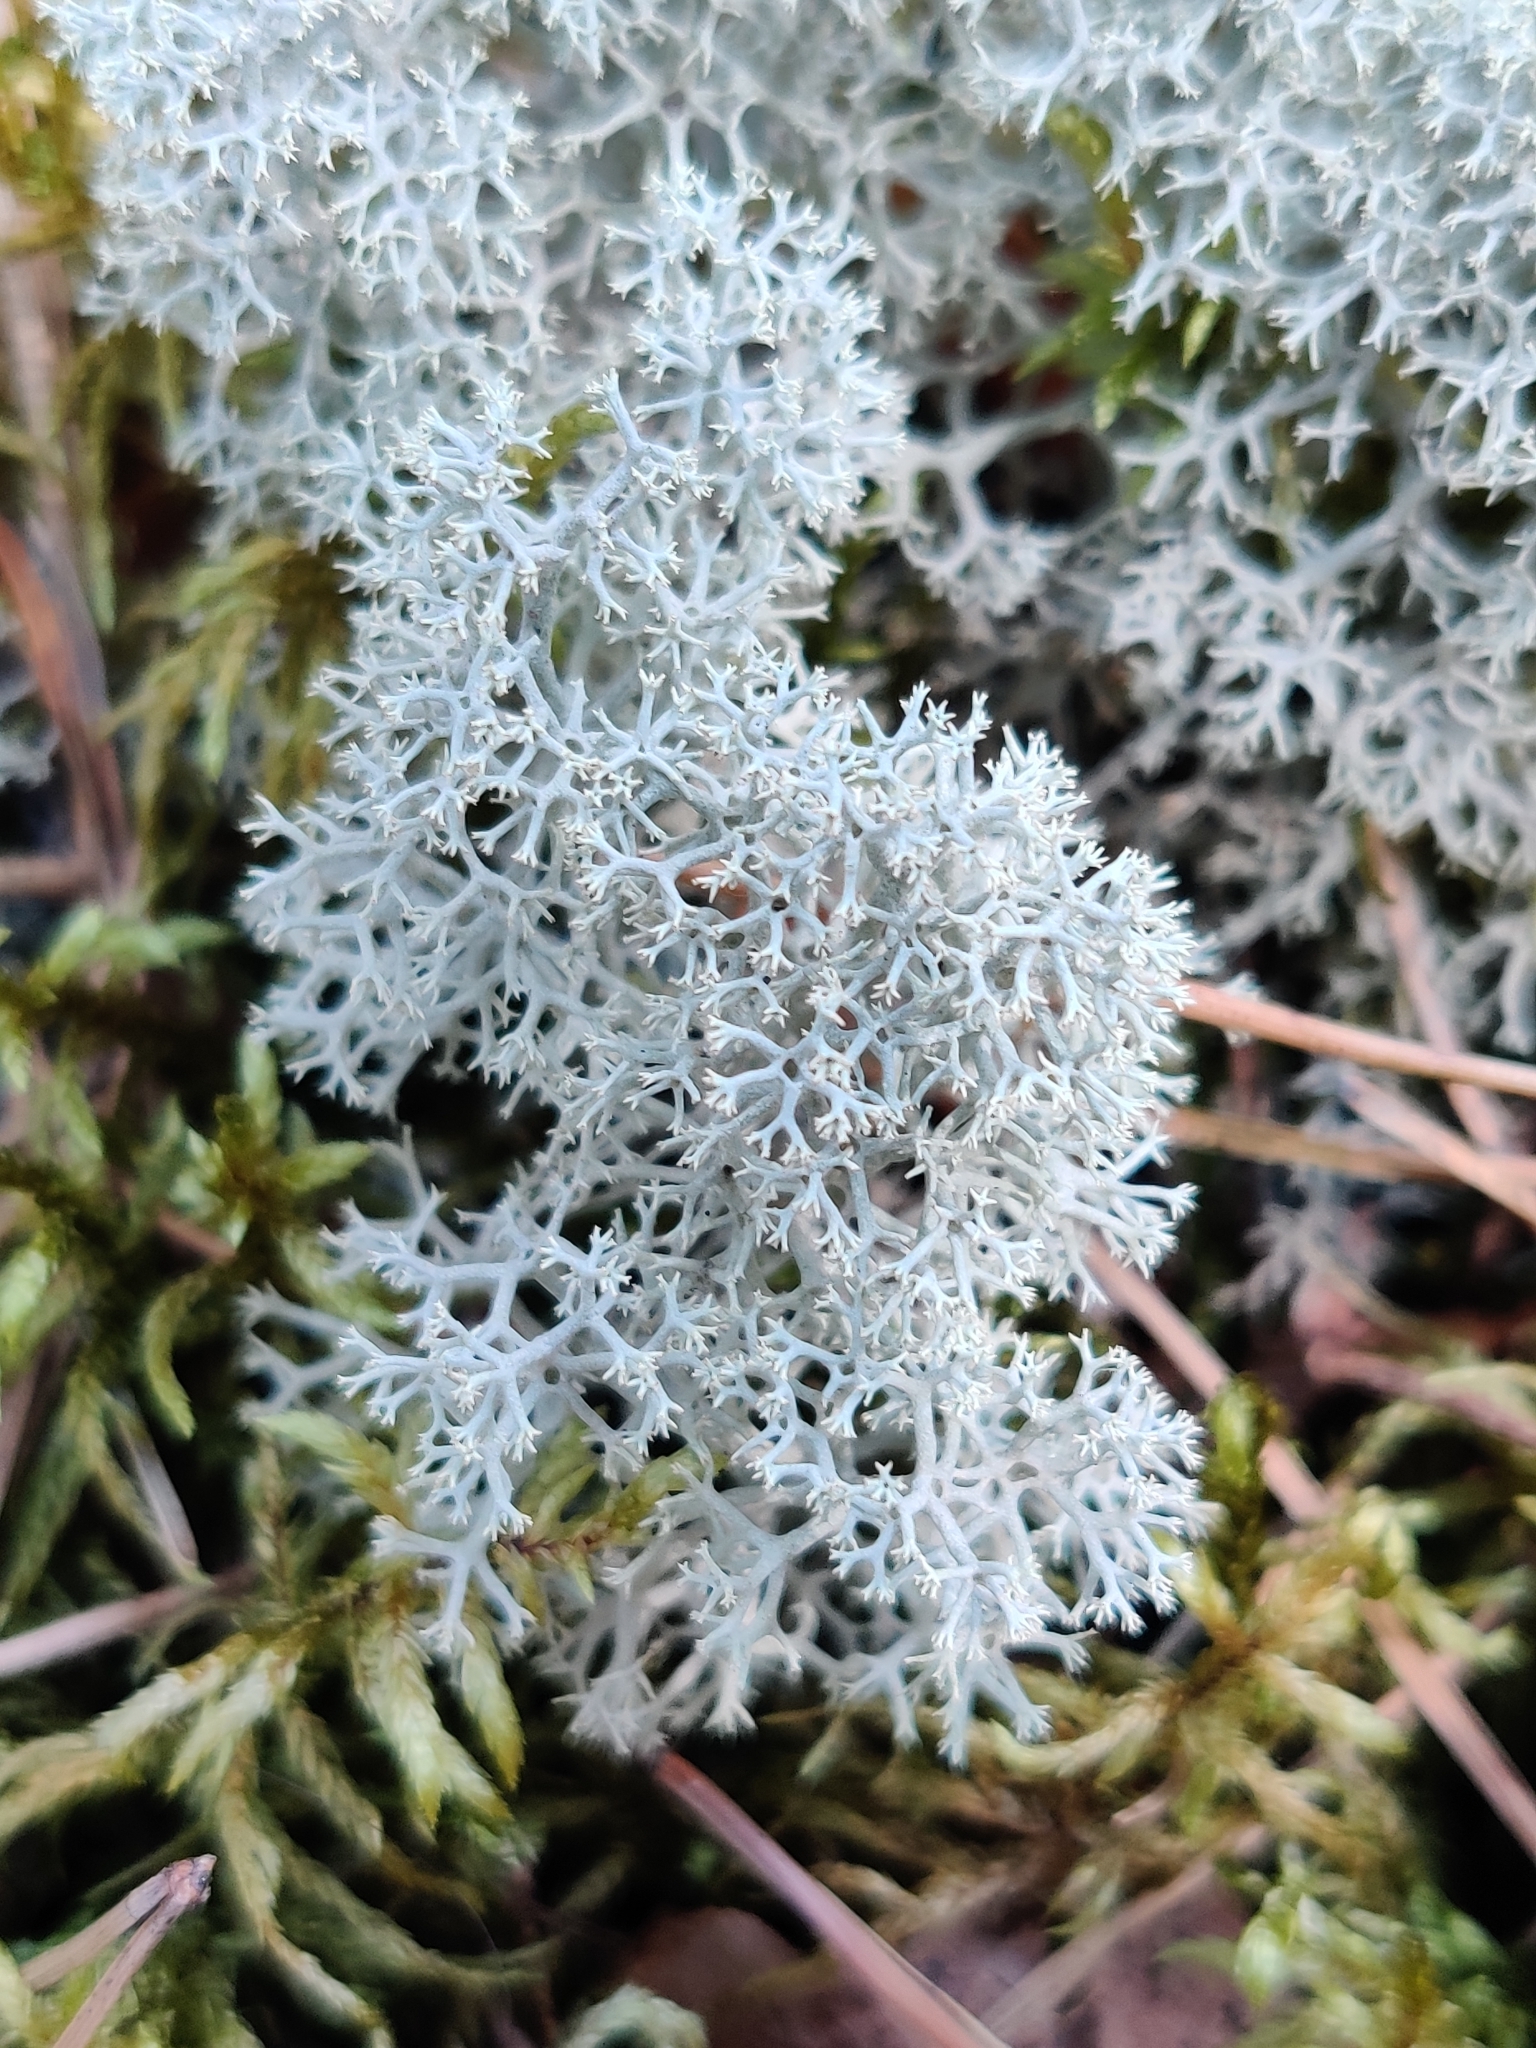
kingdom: Fungi
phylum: Ascomycota
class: Lecanoromycetes
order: Lecanorales
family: Cladoniaceae
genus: Cladonia
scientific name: Cladonia stellaris
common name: Star-tipped reindeer lichen
